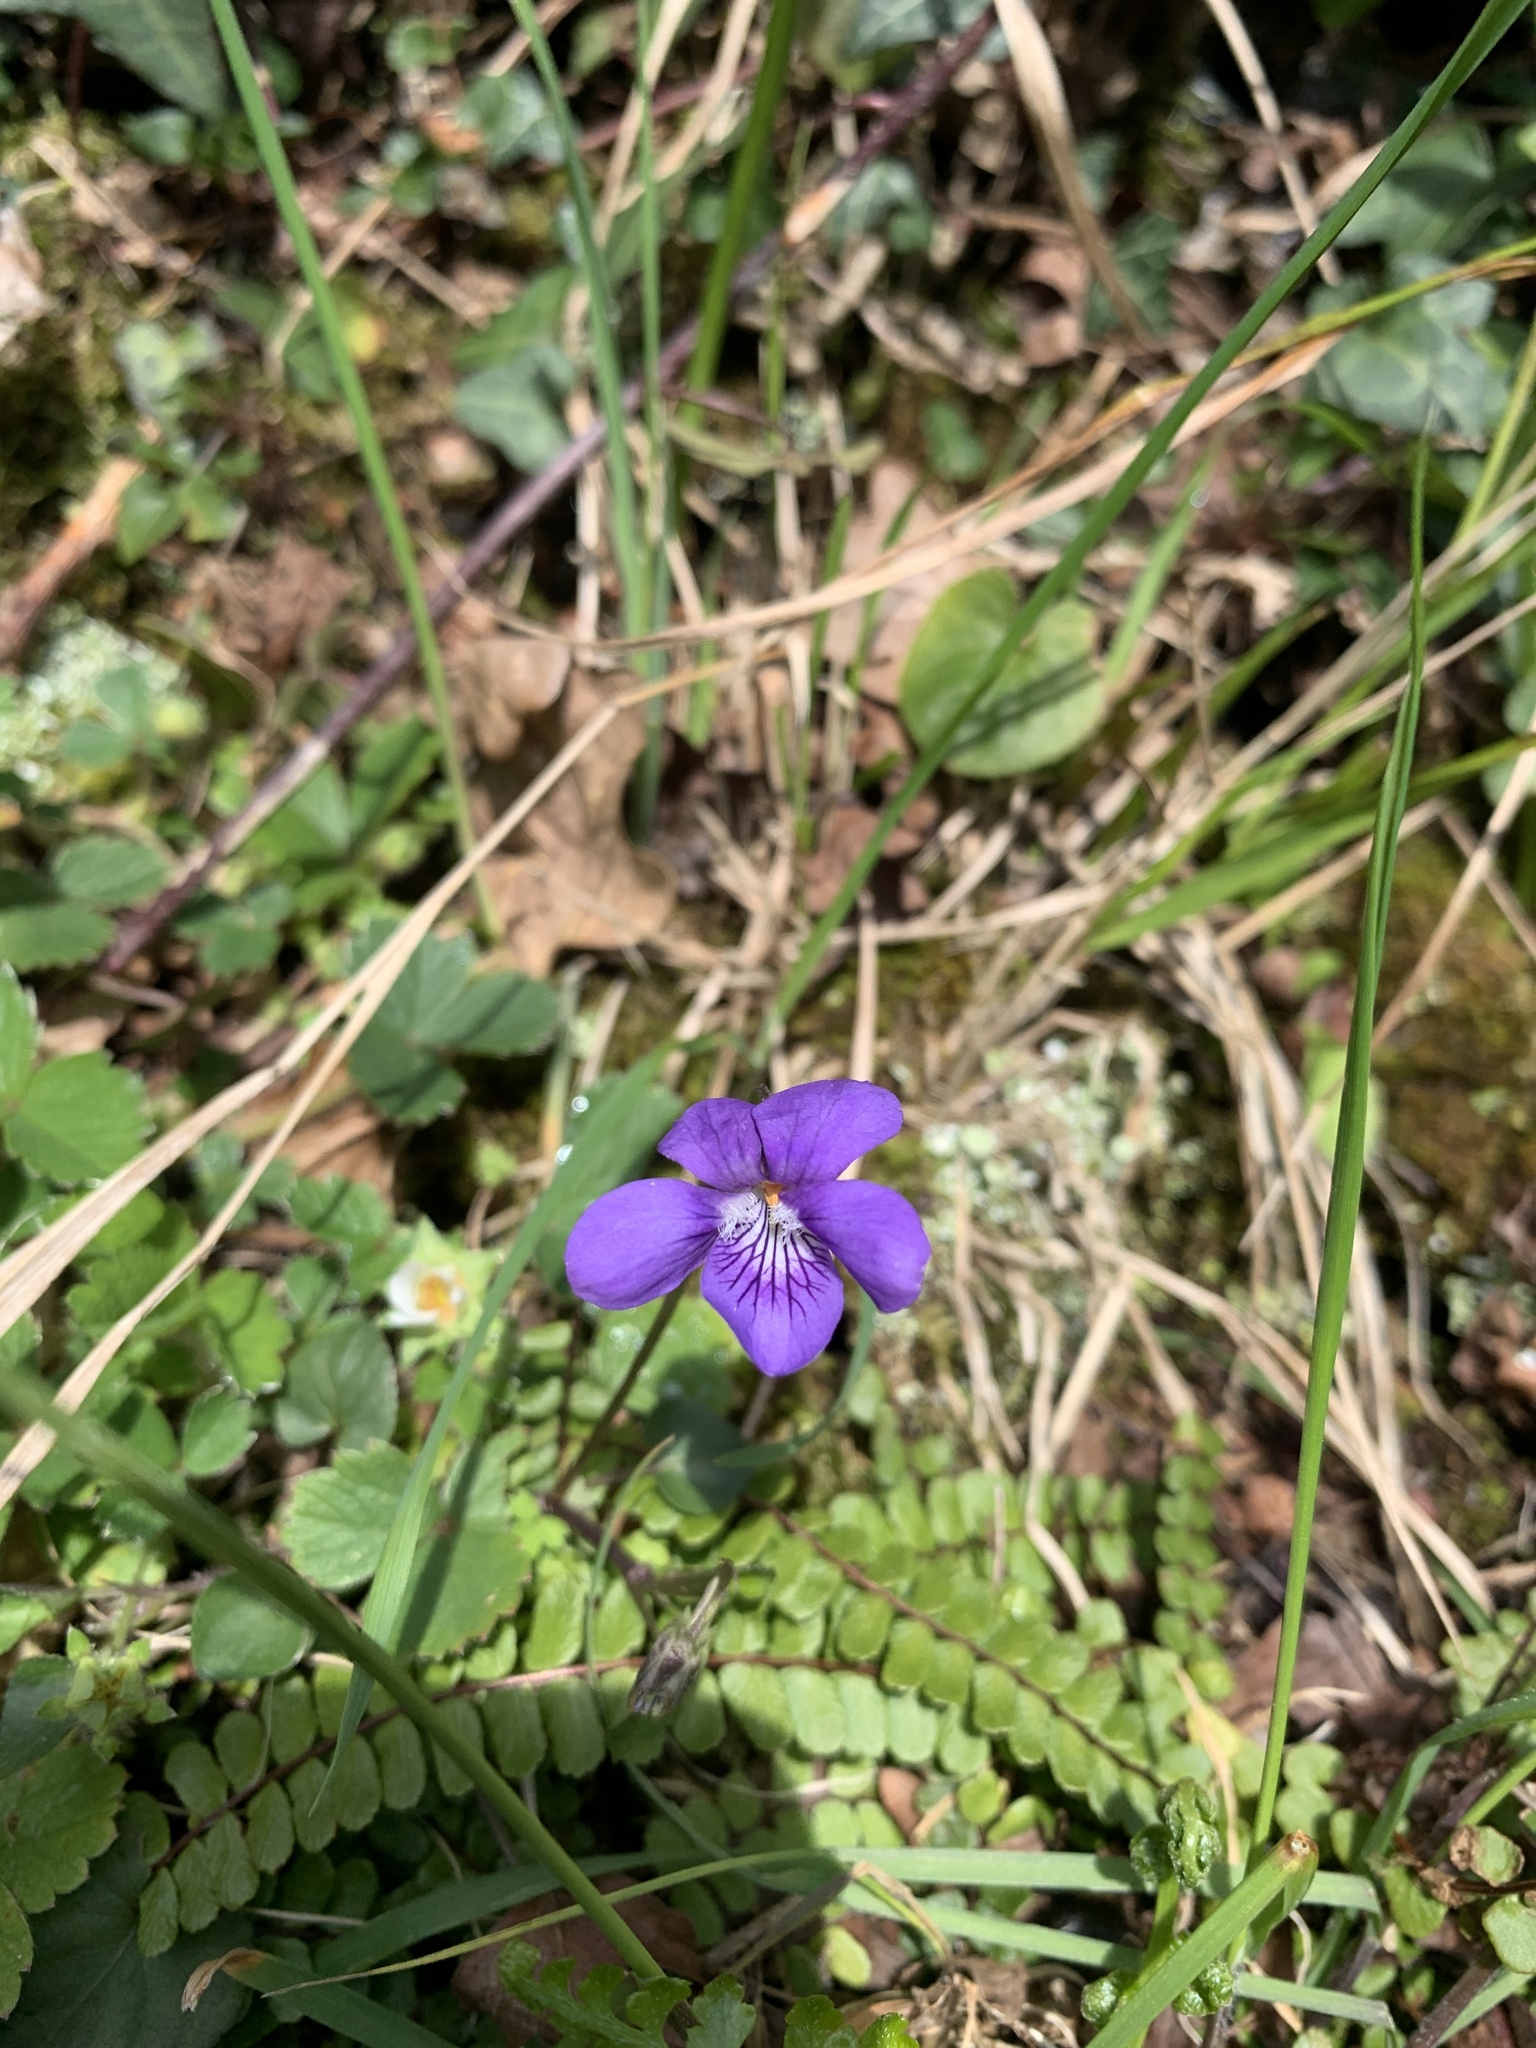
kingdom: Plantae
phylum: Tracheophyta
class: Magnoliopsida
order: Malpighiales
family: Violaceae
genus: Viola
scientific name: Viola riviniana
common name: Common dog-violet
